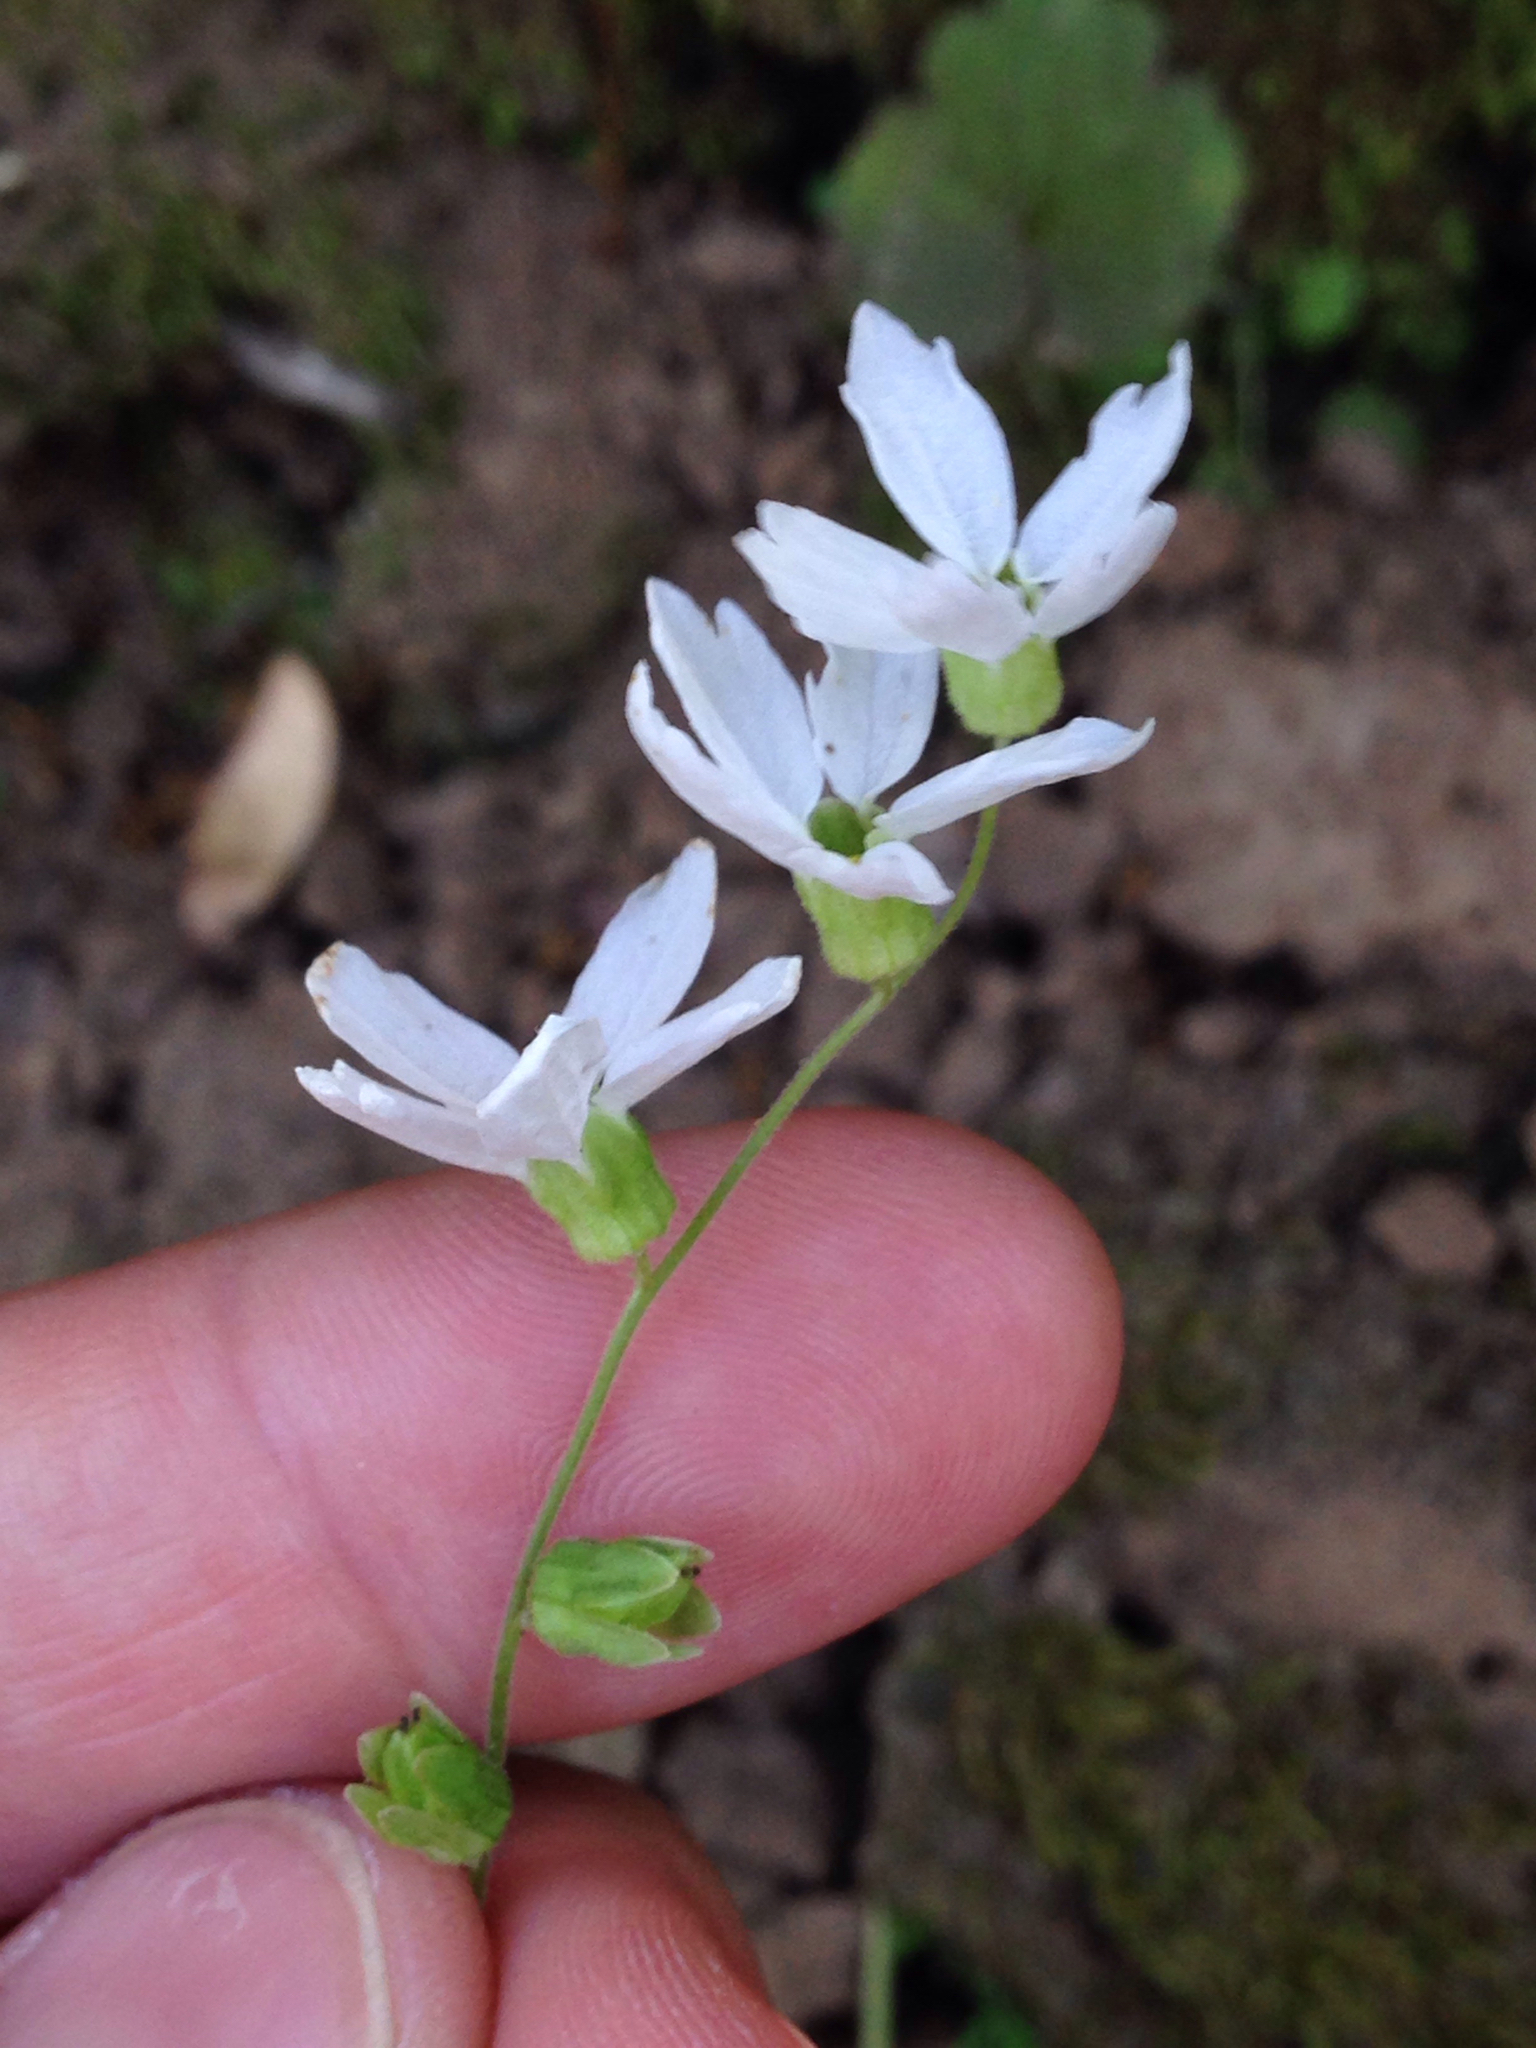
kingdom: Plantae
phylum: Tracheophyta
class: Magnoliopsida
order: Saxifragales
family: Saxifragaceae
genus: Lithophragma
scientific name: Lithophragma heterophyllum
